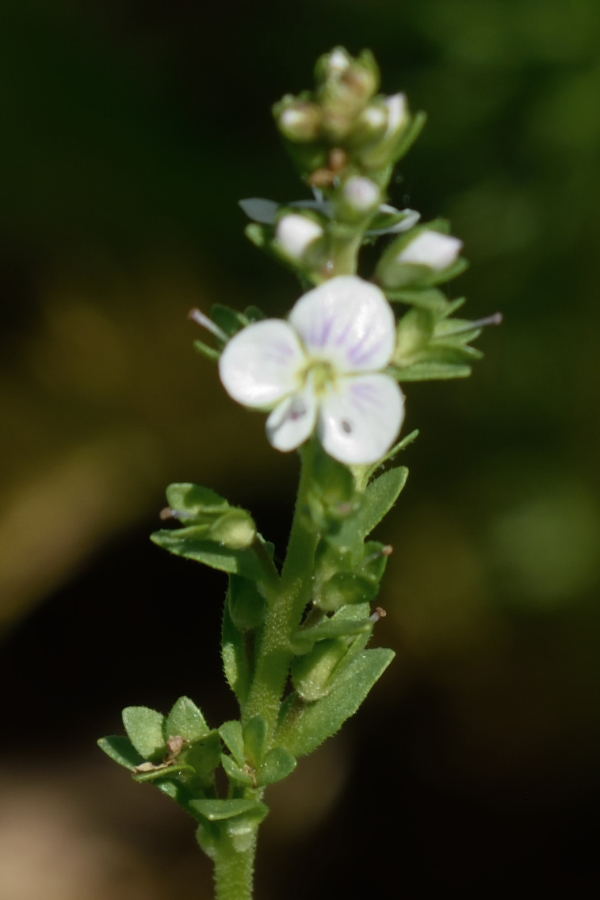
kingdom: Plantae
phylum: Tracheophyta
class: Magnoliopsida
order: Lamiales
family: Plantaginaceae
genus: Veronica
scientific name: Veronica serpyllifolia
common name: Thyme-leaved speedwell
